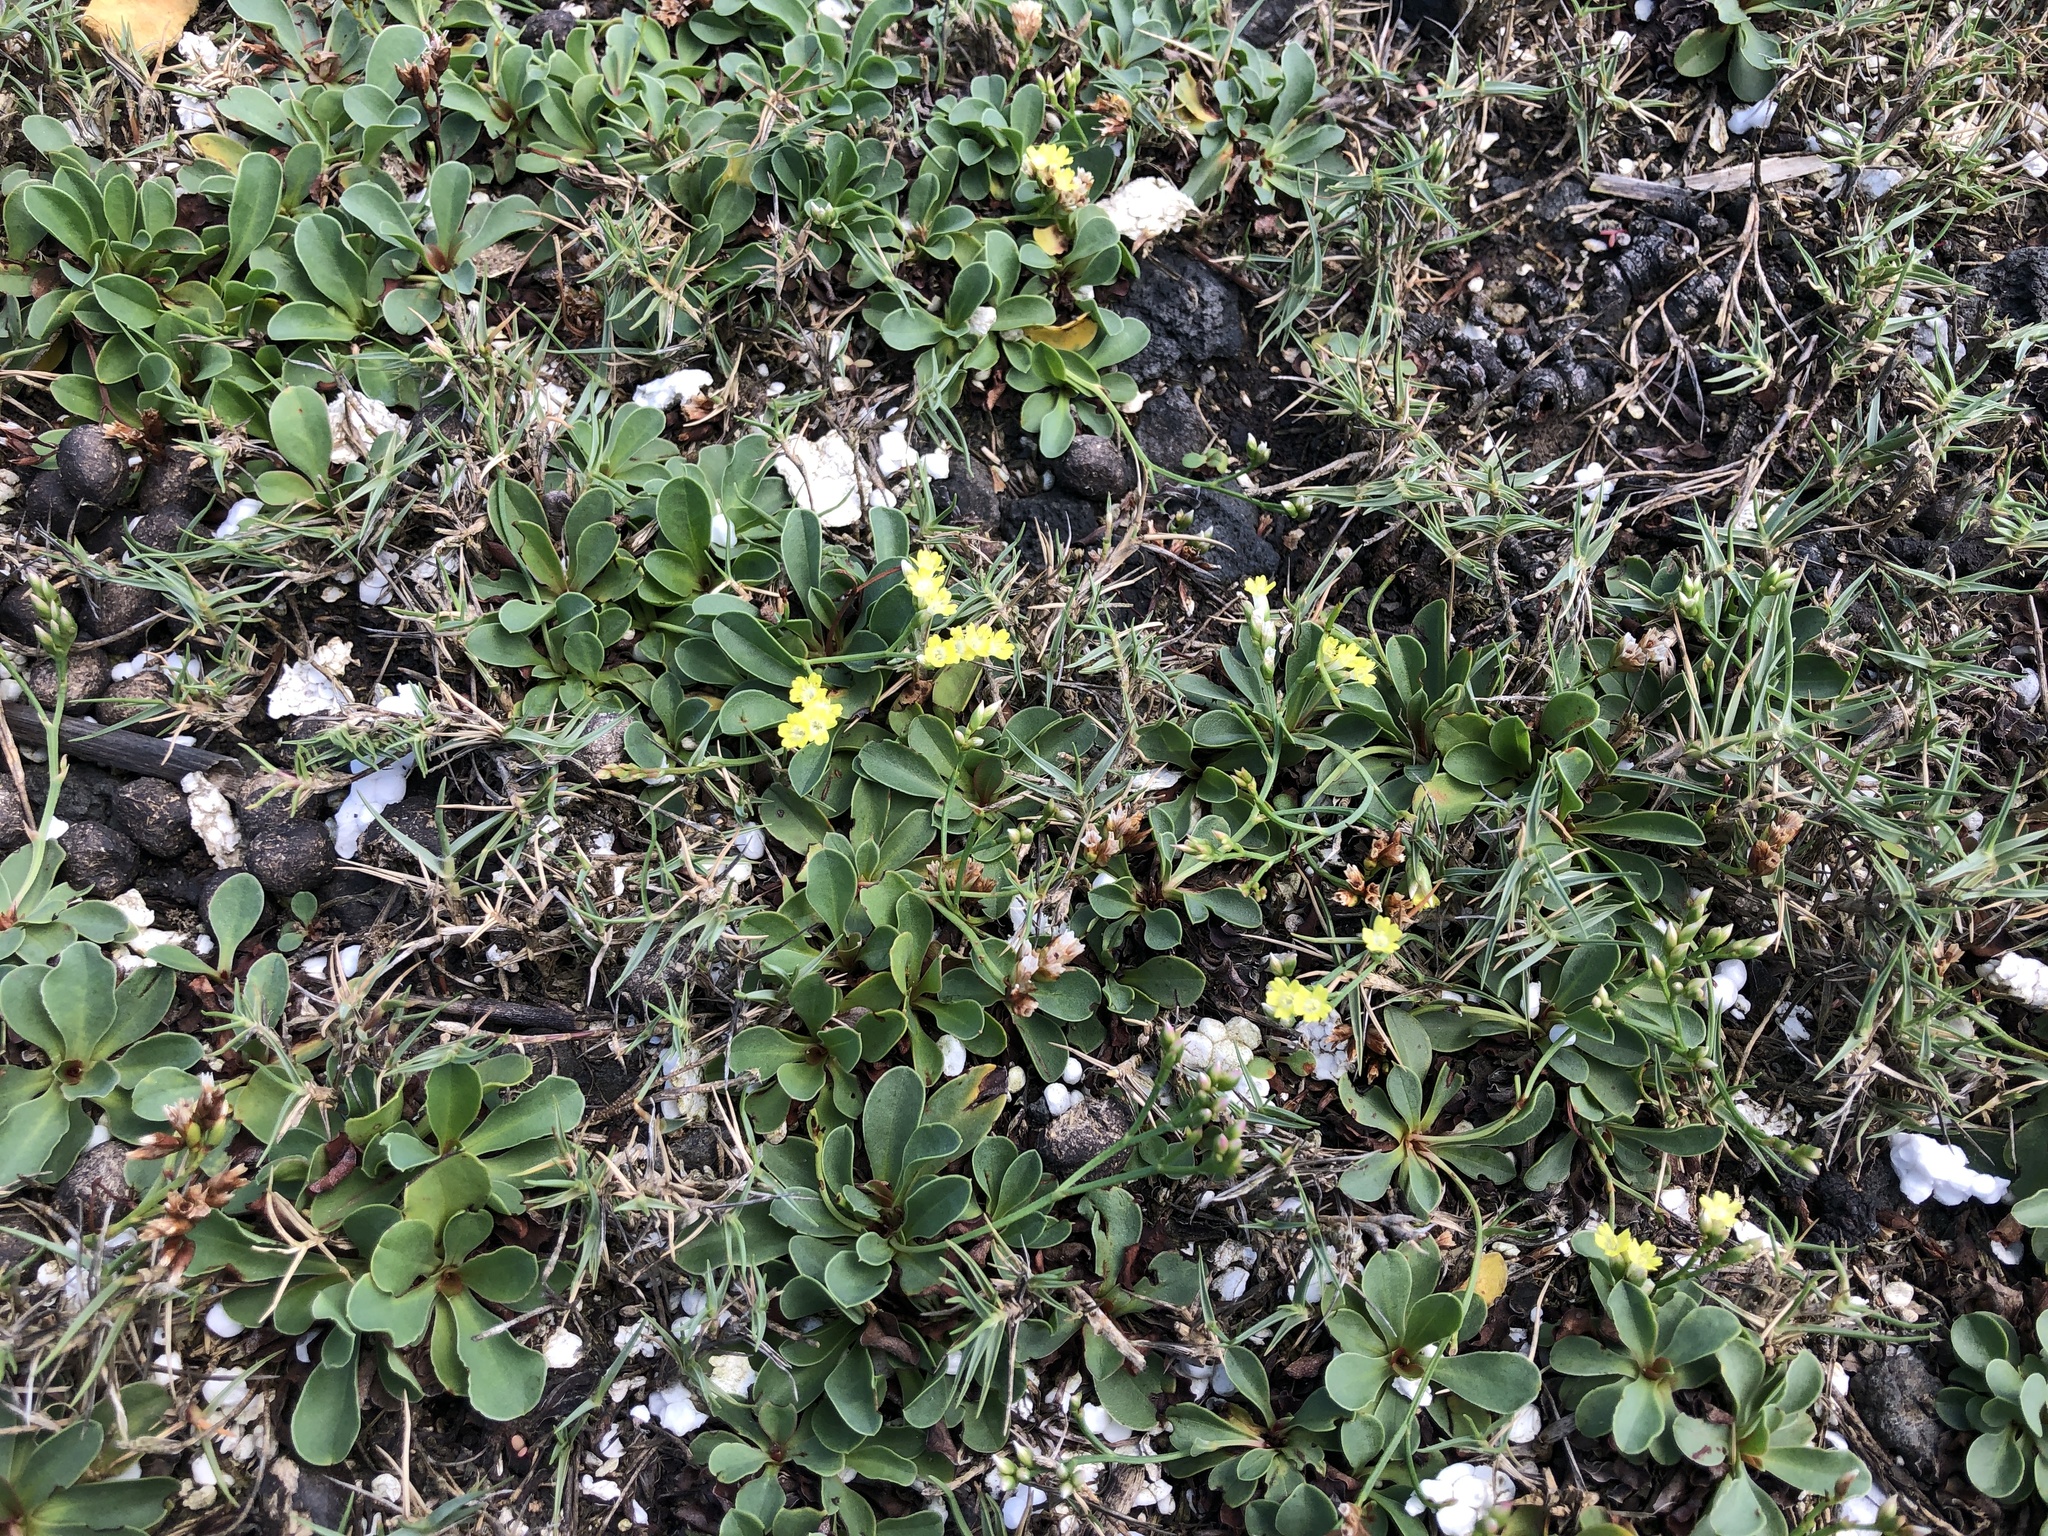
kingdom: Plantae
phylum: Tracheophyta
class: Magnoliopsida
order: Caryophyllales
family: Plumbaginaceae
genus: Limonium
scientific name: Limonium sinense
